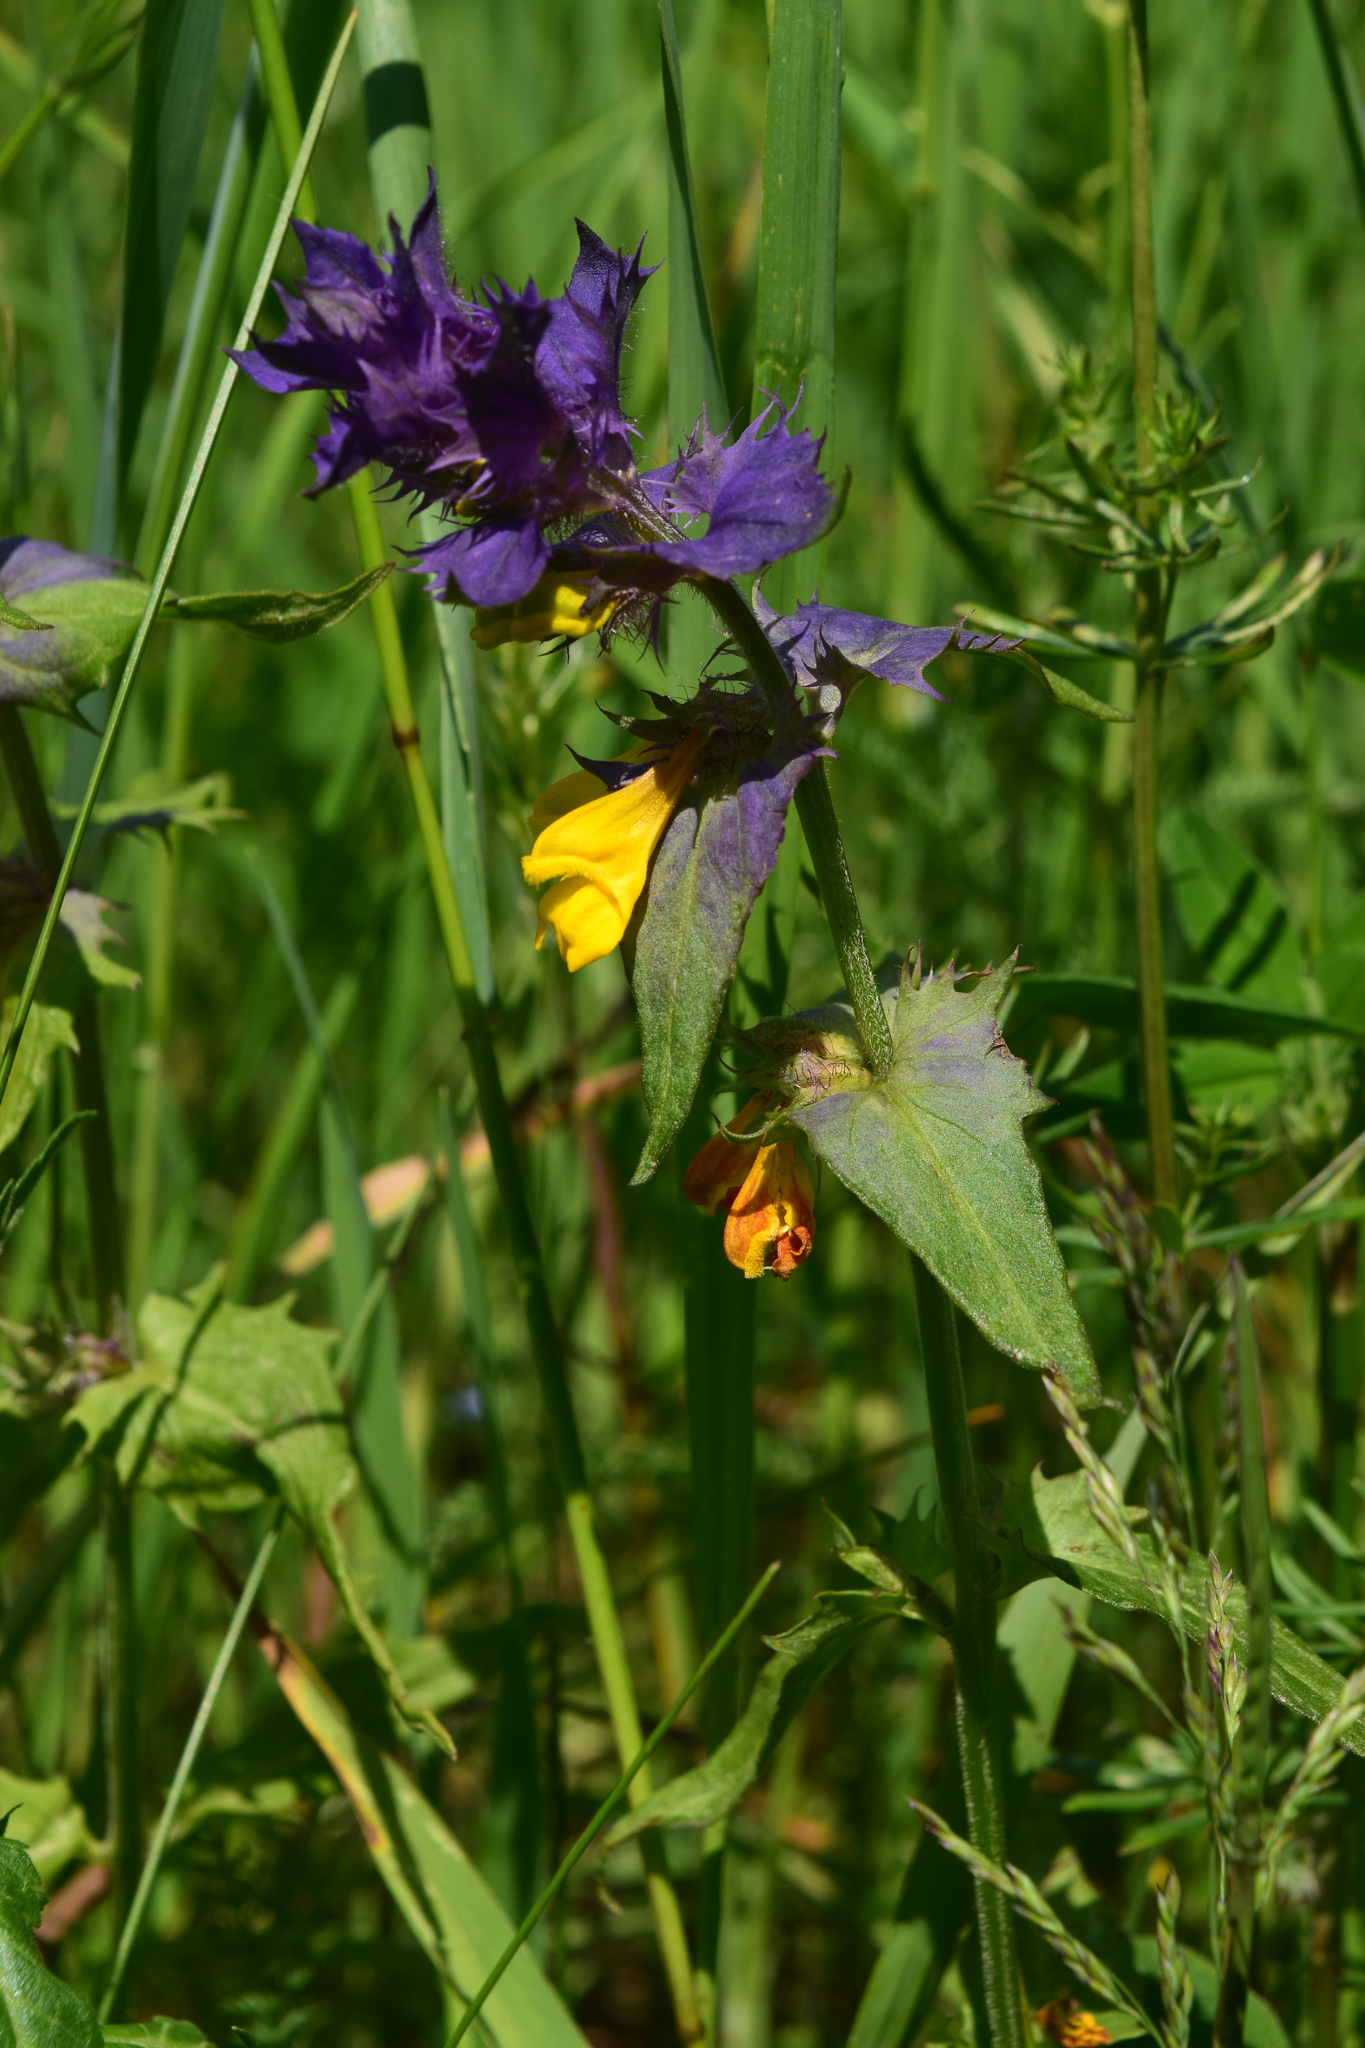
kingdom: Plantae
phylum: Tracheophyta
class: Magnoliopsida
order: Lamiales
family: Orobanchaceae
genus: Melampyrum
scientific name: Melampyrum nemorosum
